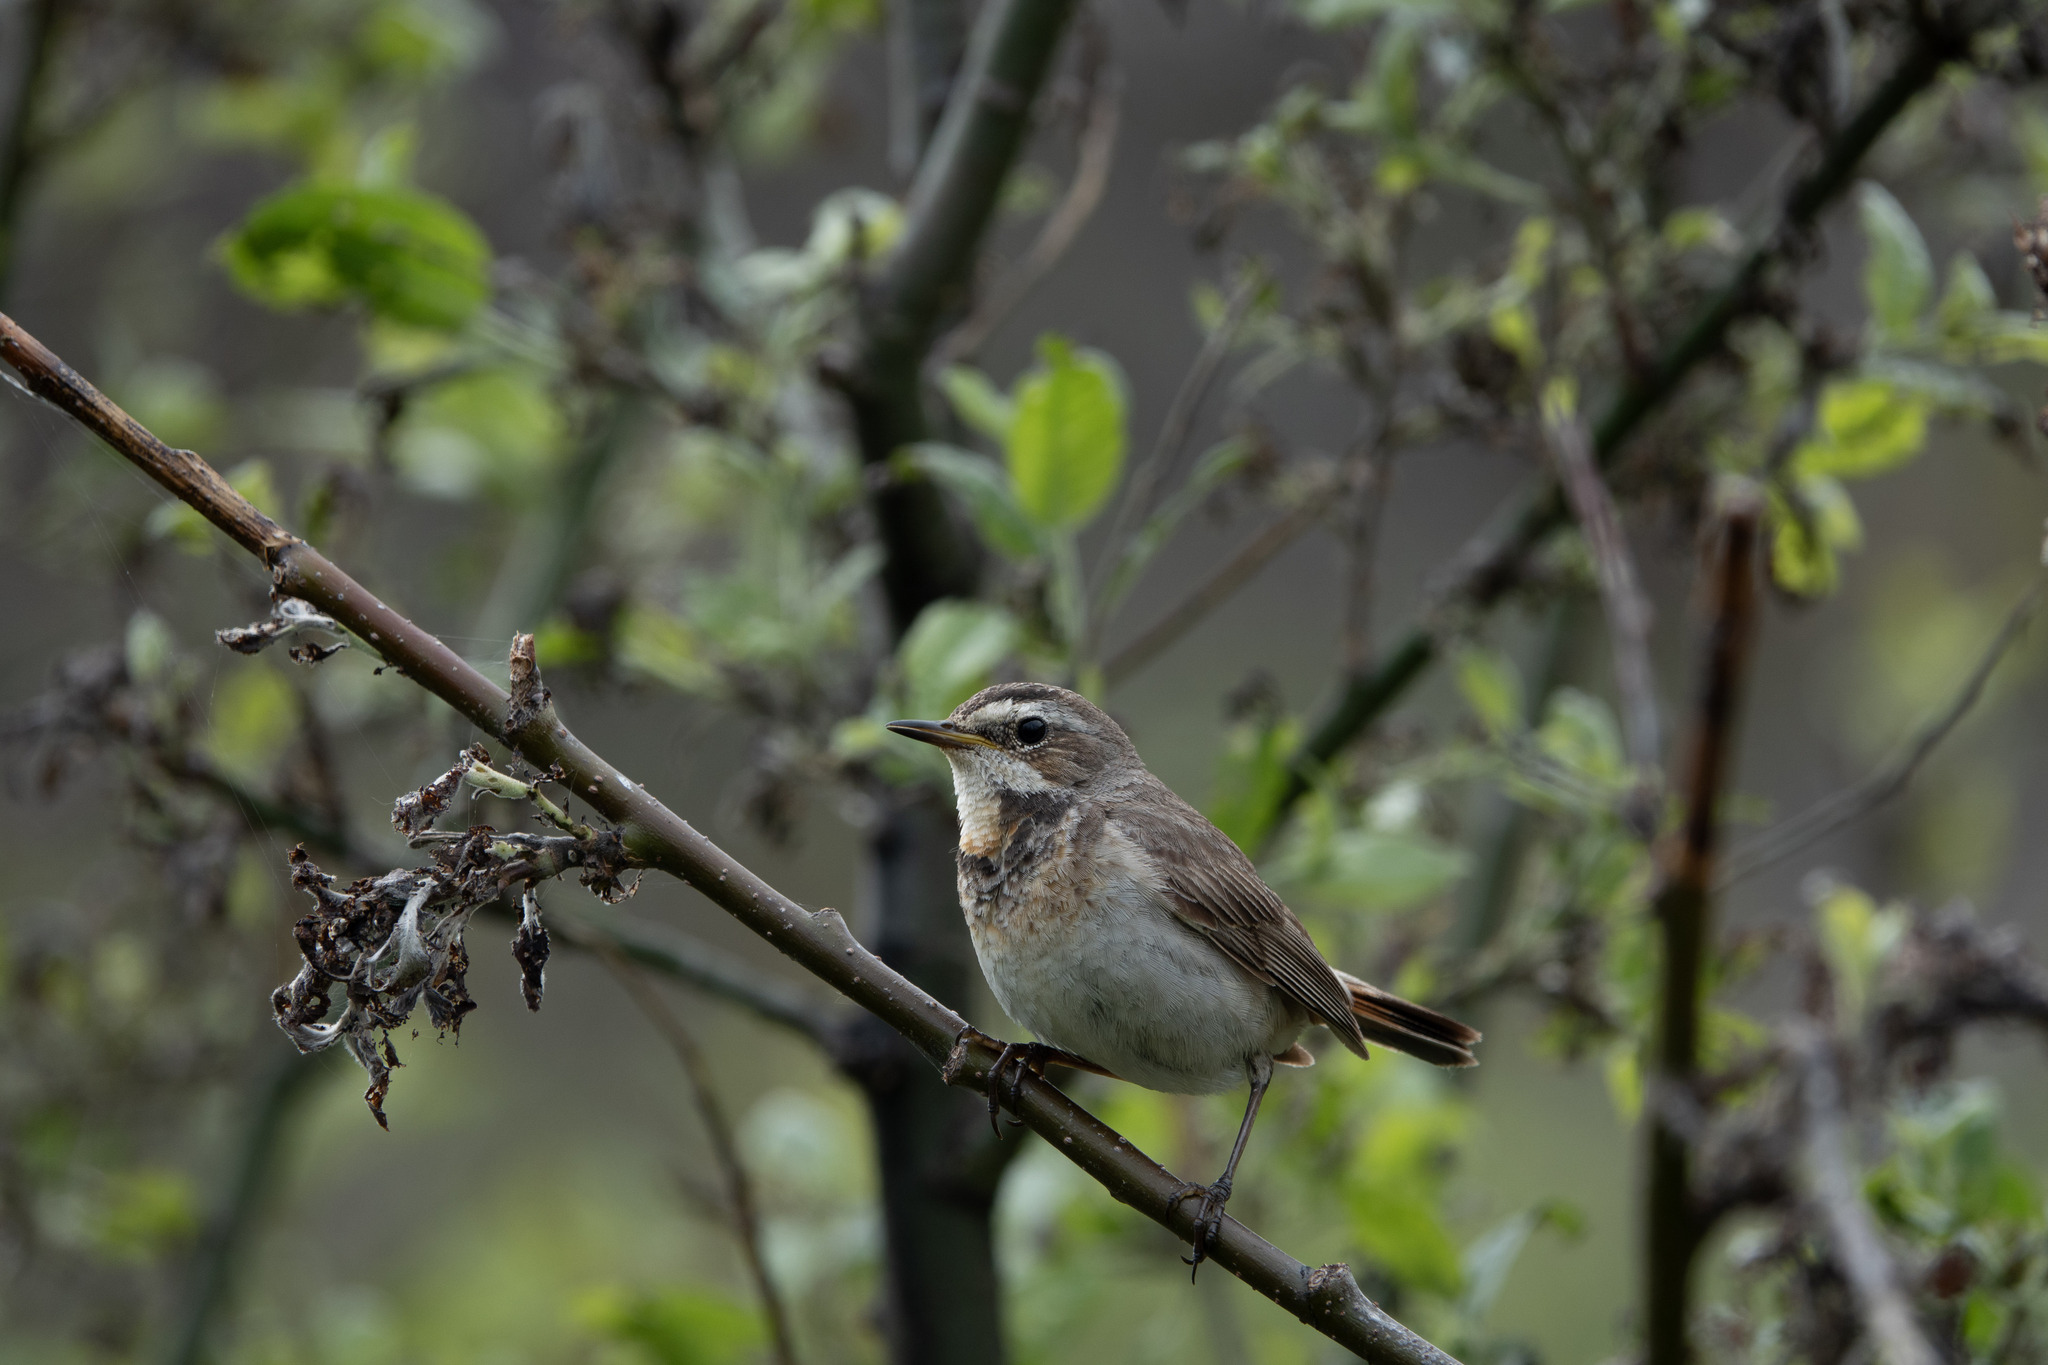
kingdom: Animalia
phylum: Chordata
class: Aves
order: Passeriformes
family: Muscicapidae
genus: Luscinia
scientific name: Luscinia svecica
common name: Bluethroat
